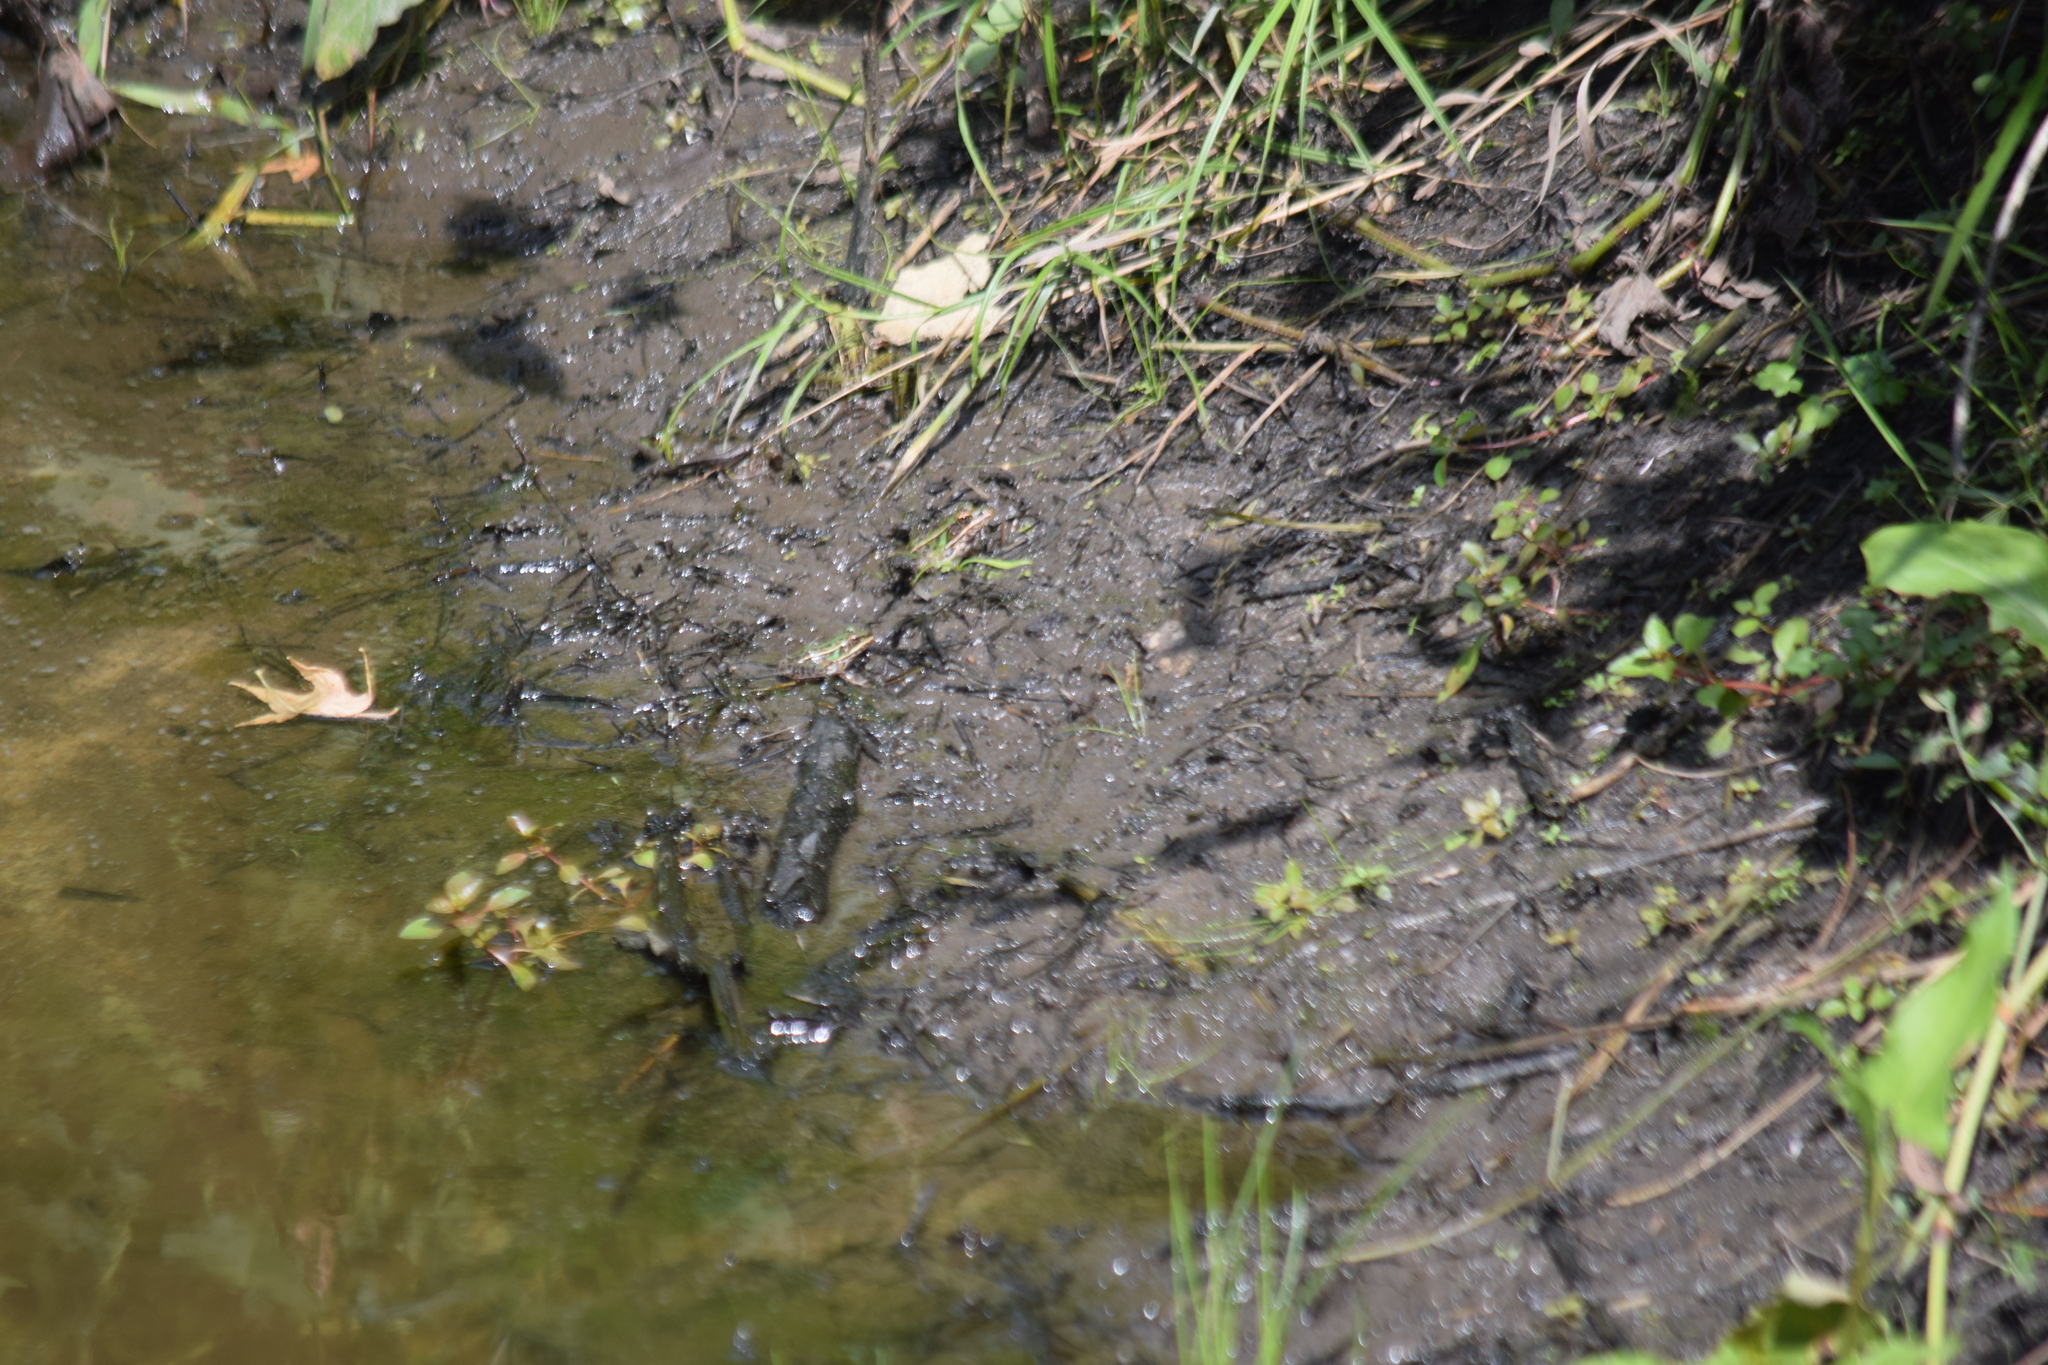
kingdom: Animalia
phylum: Chordata
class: Amphibia
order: Anura
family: Ranidae
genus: Lithobates
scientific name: Lithobates sphenocephalus
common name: Southern leopard frog
